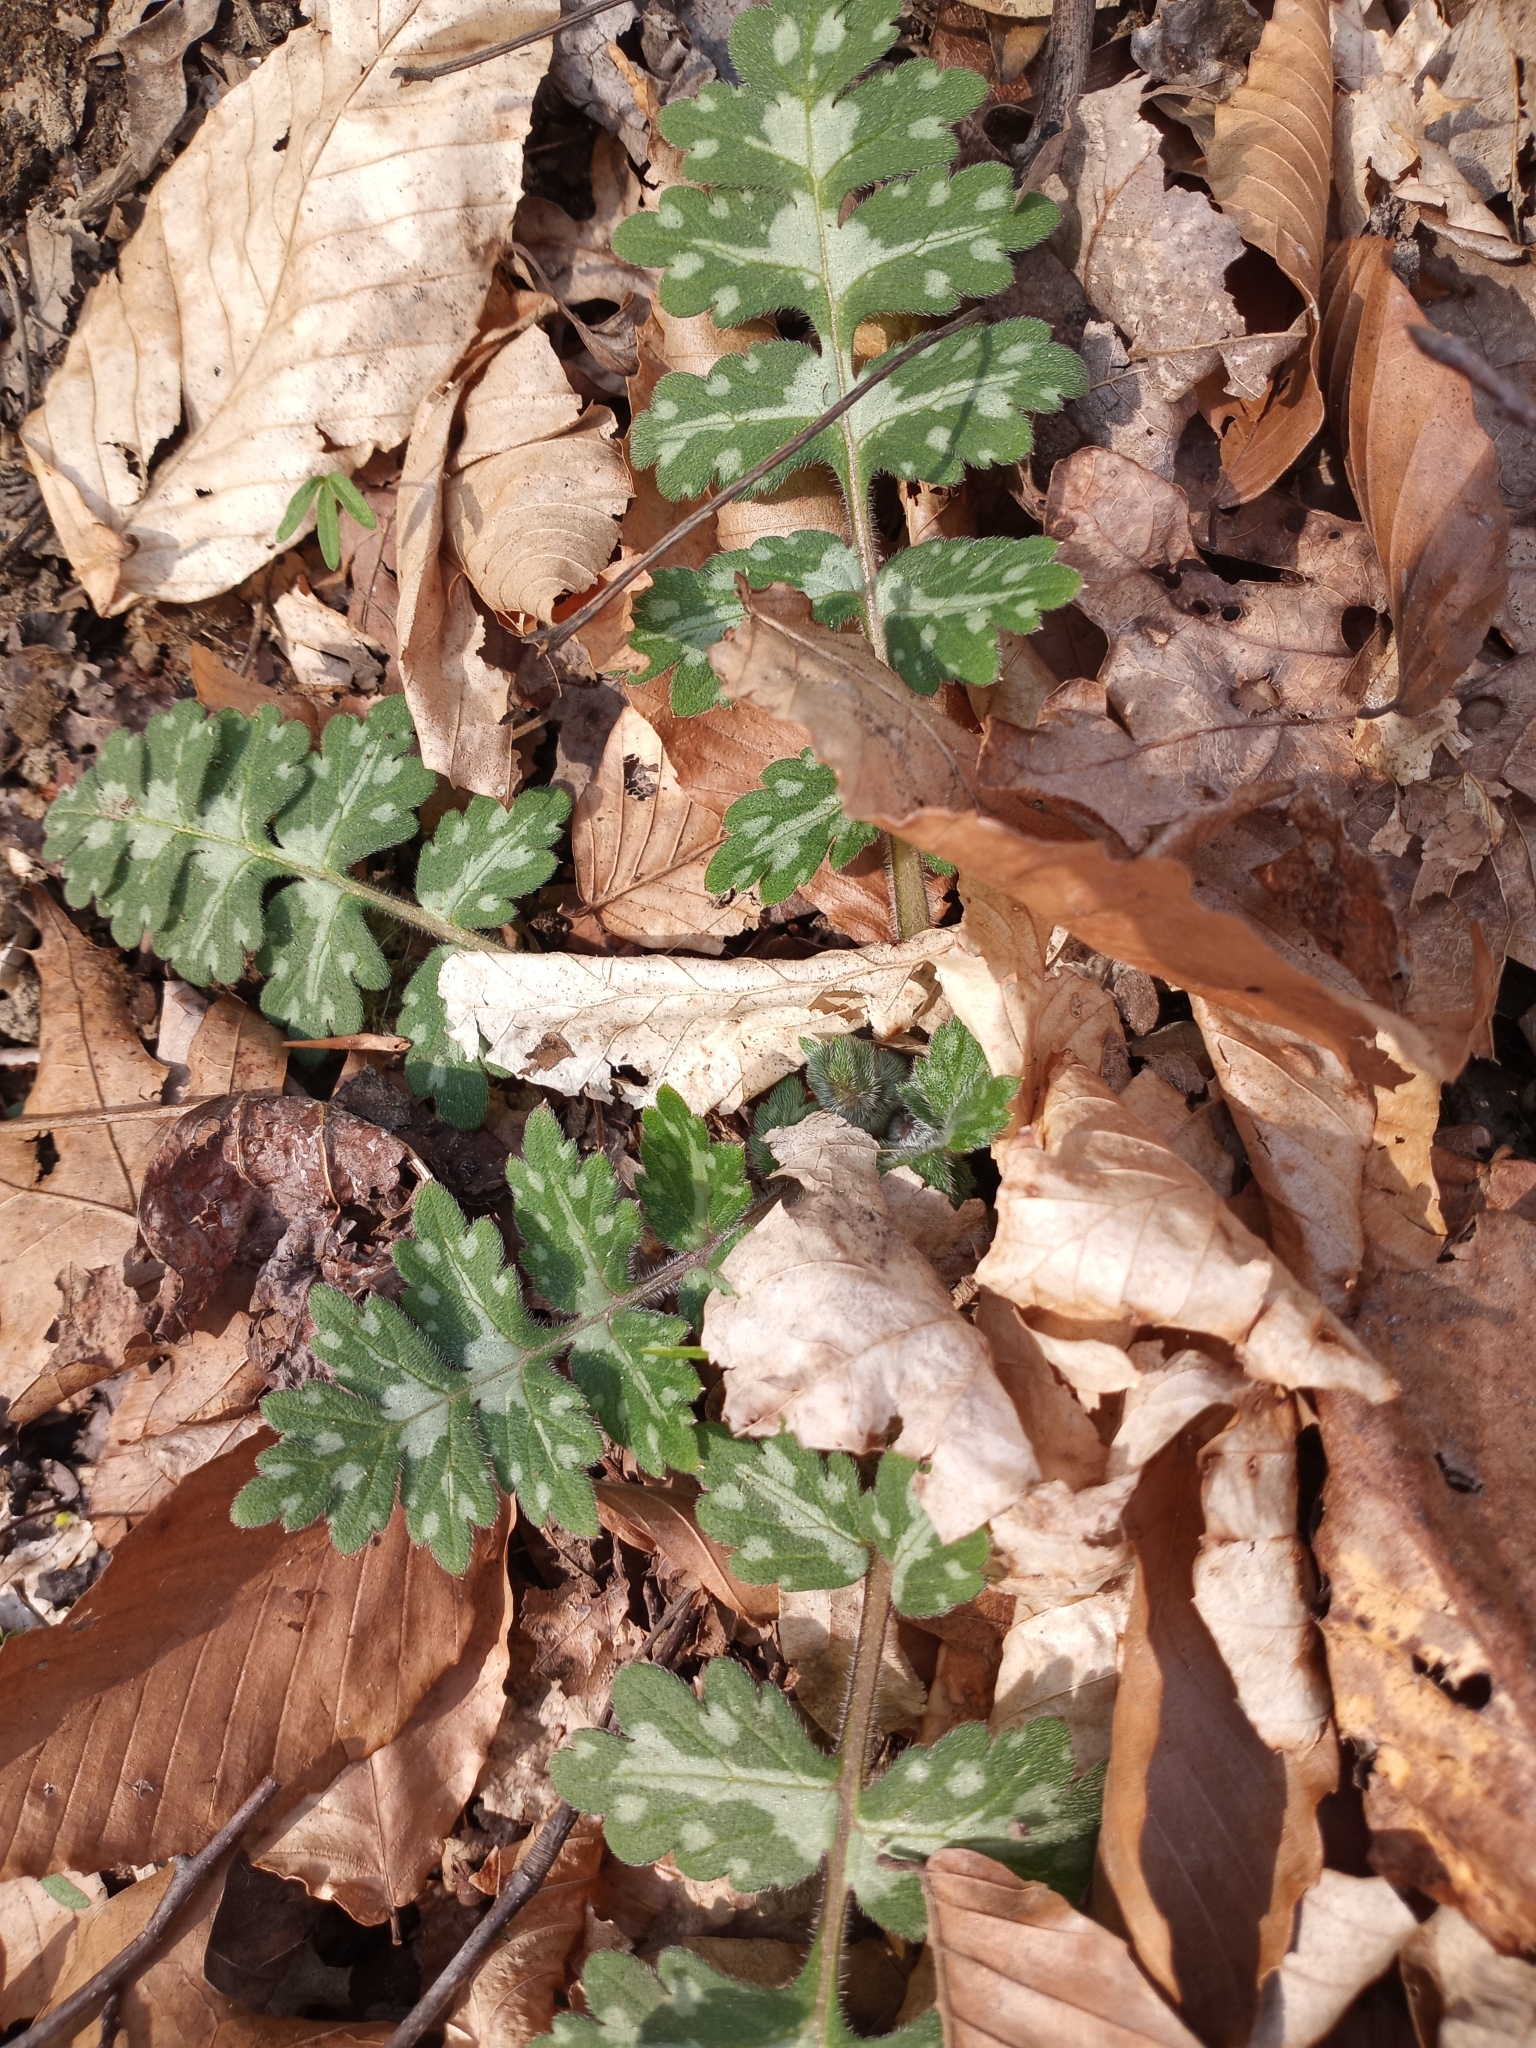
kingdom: Plantae
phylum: Tracheophyta
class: Magnoliopsida
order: Boraginales
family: Hydrophyllaceae
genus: Hydrophyllum
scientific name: Hydrophyllum macrophyllum
